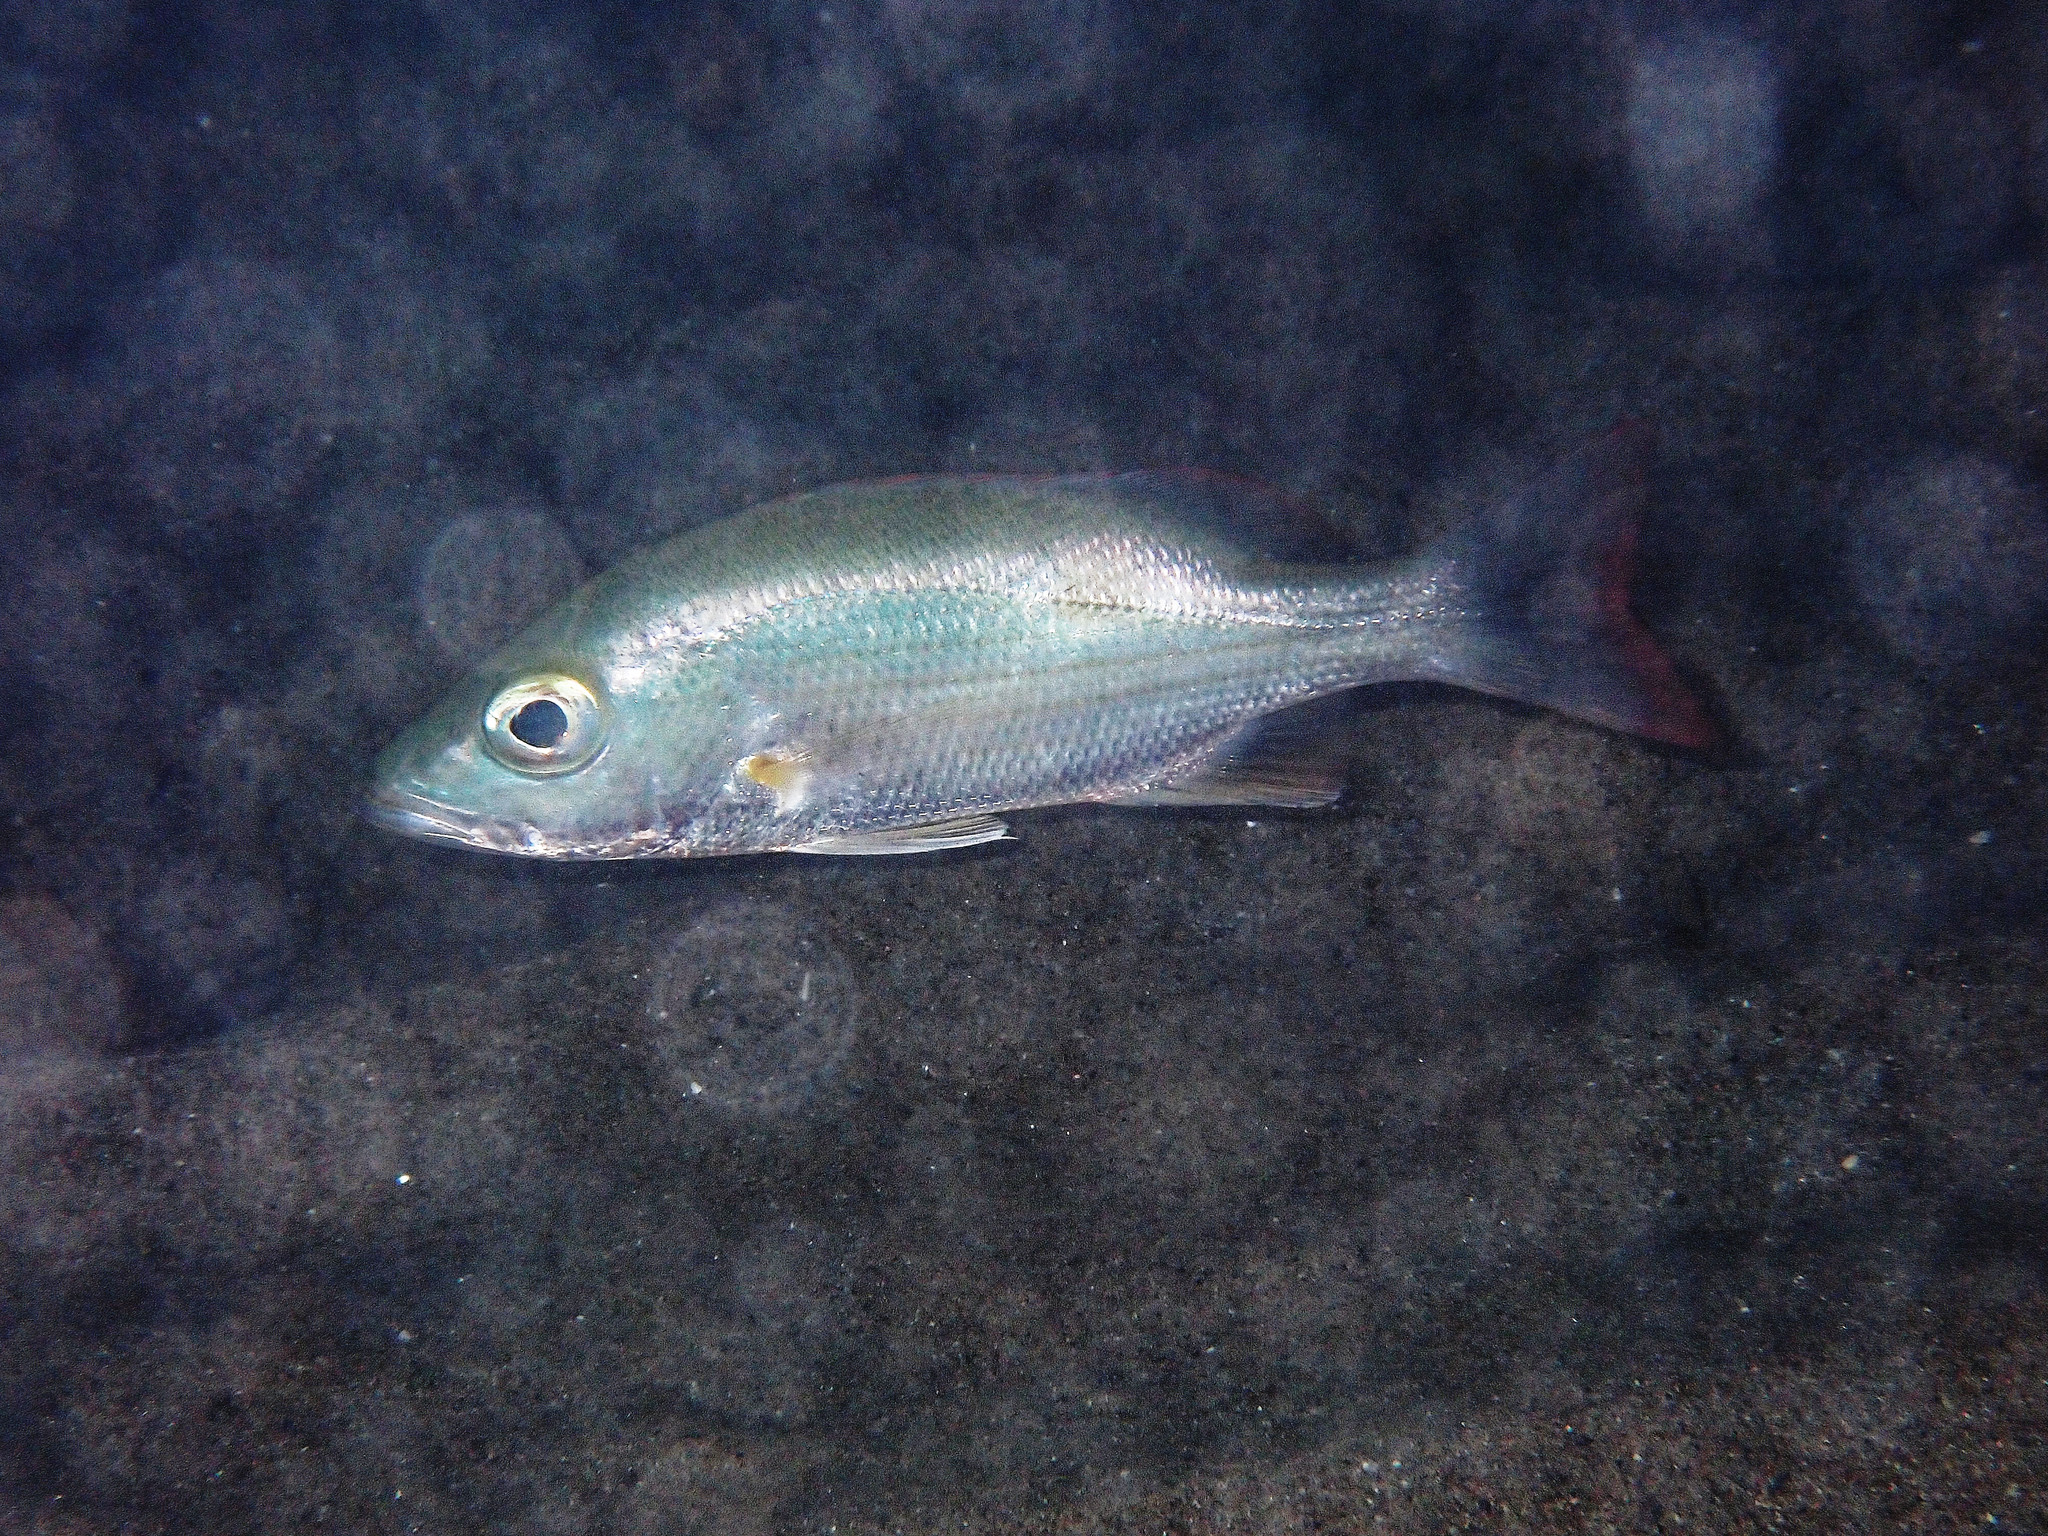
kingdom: Animalia
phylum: Chordata
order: Perciformes
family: Lutjanidae
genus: Lutjanus
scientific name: Lutjanus mahogoni
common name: Spot snapper
